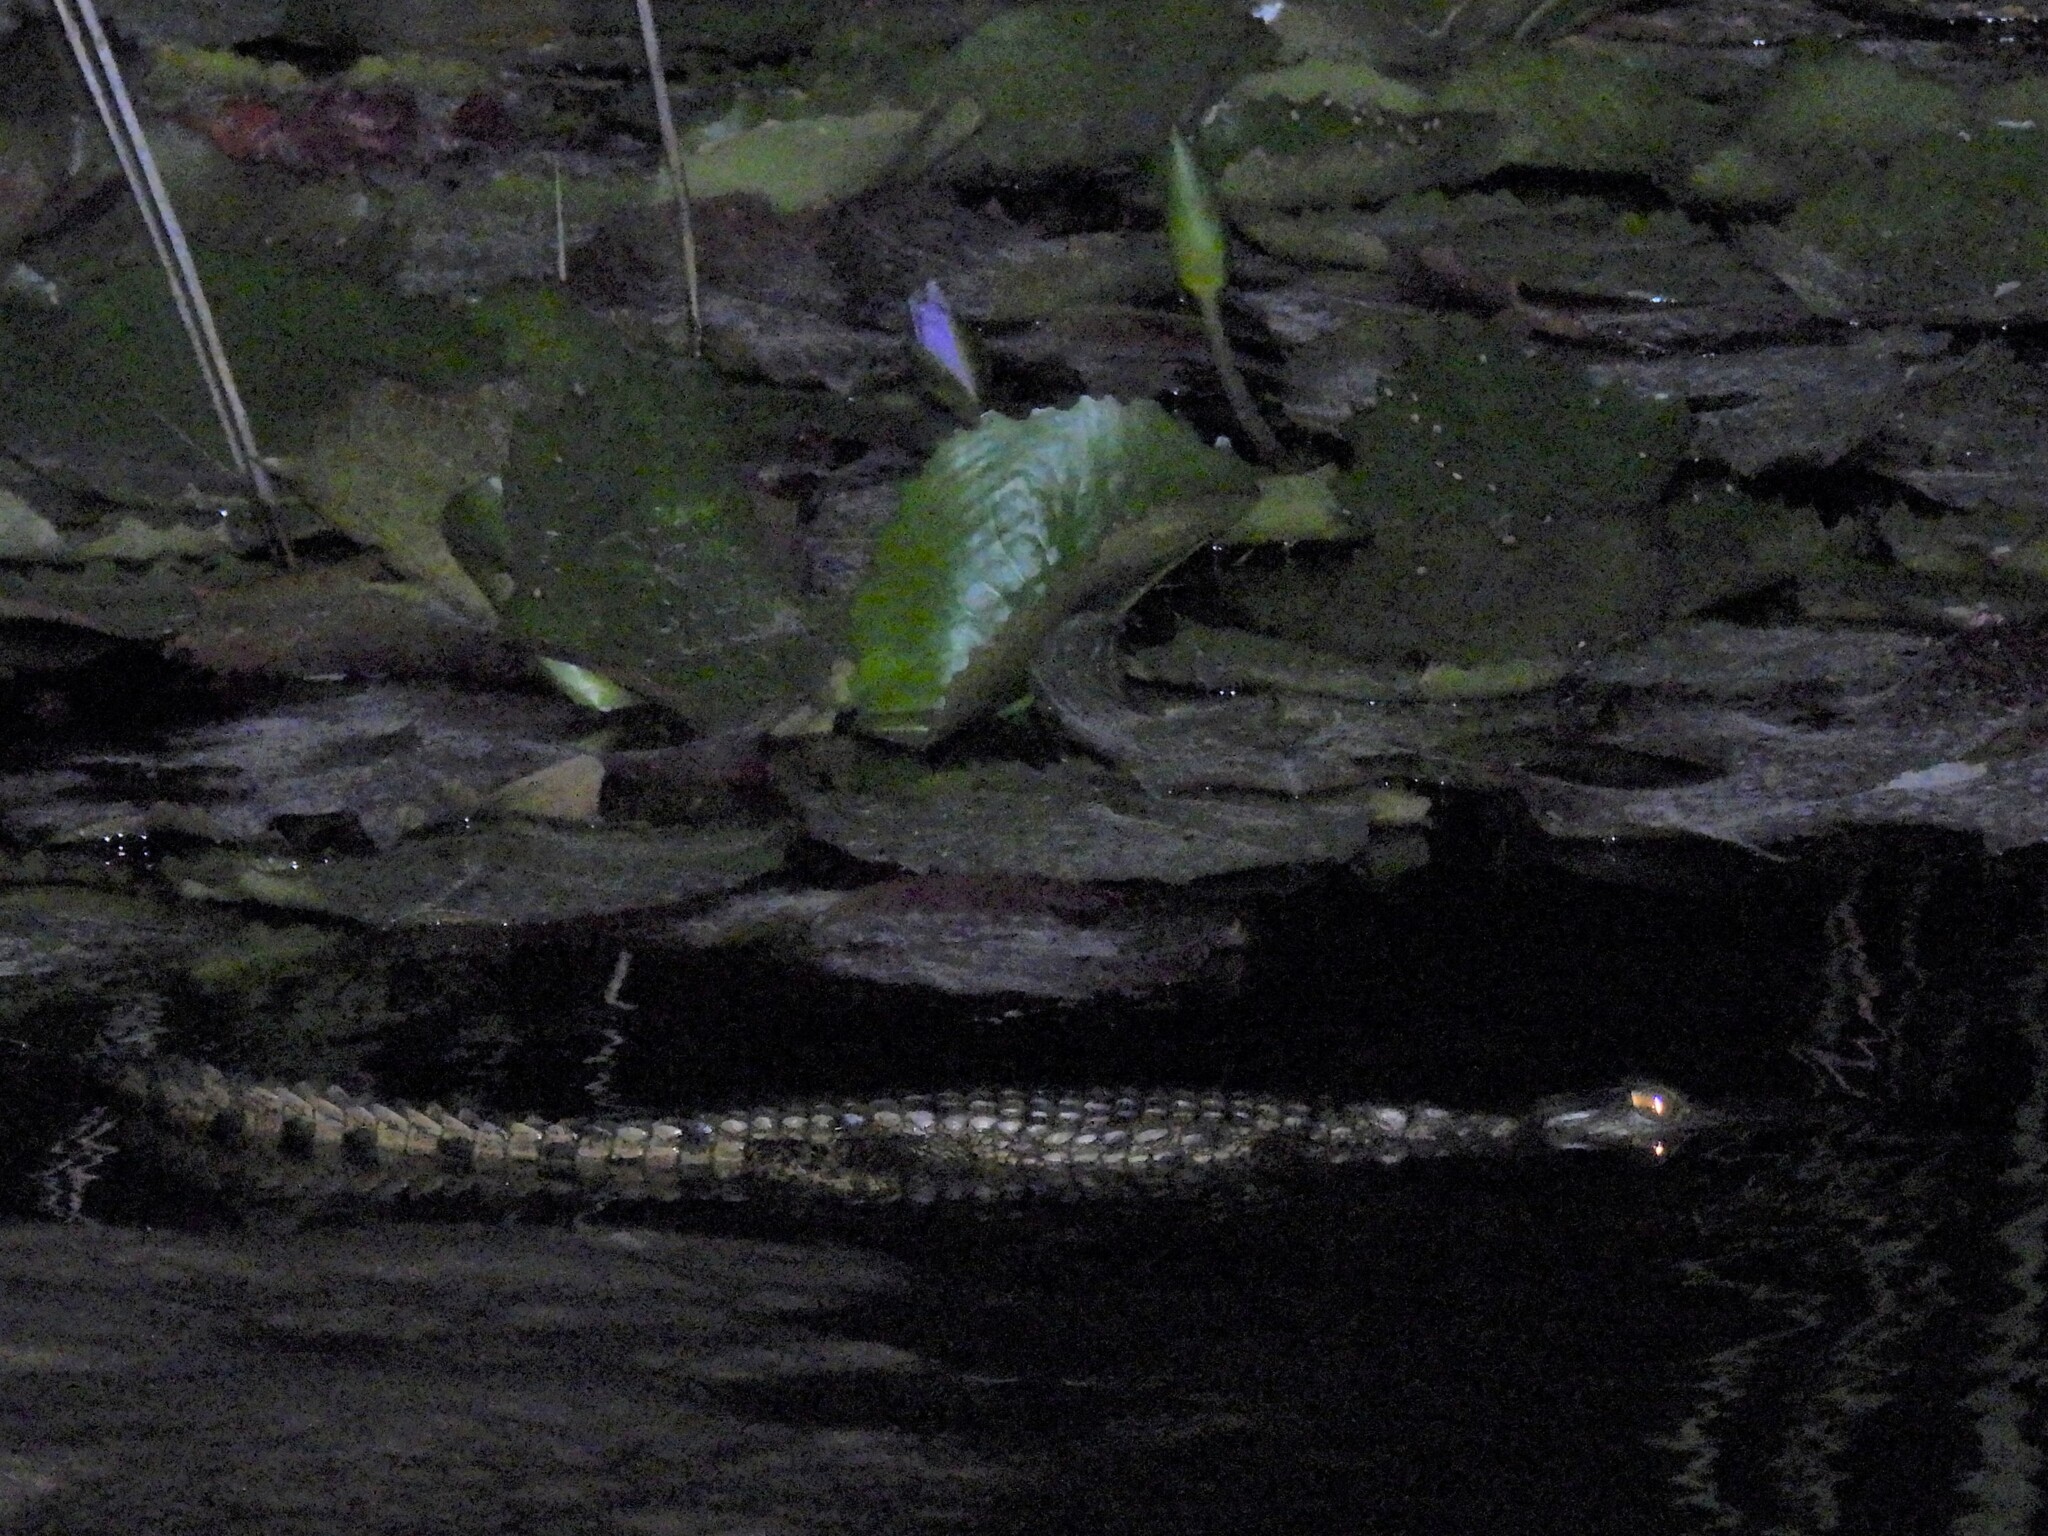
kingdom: Animalia
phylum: Chordata
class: Crocodylia
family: Crocodylidae
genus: Crocodylus
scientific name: Crocodylus niloticus
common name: Nile crocodile
